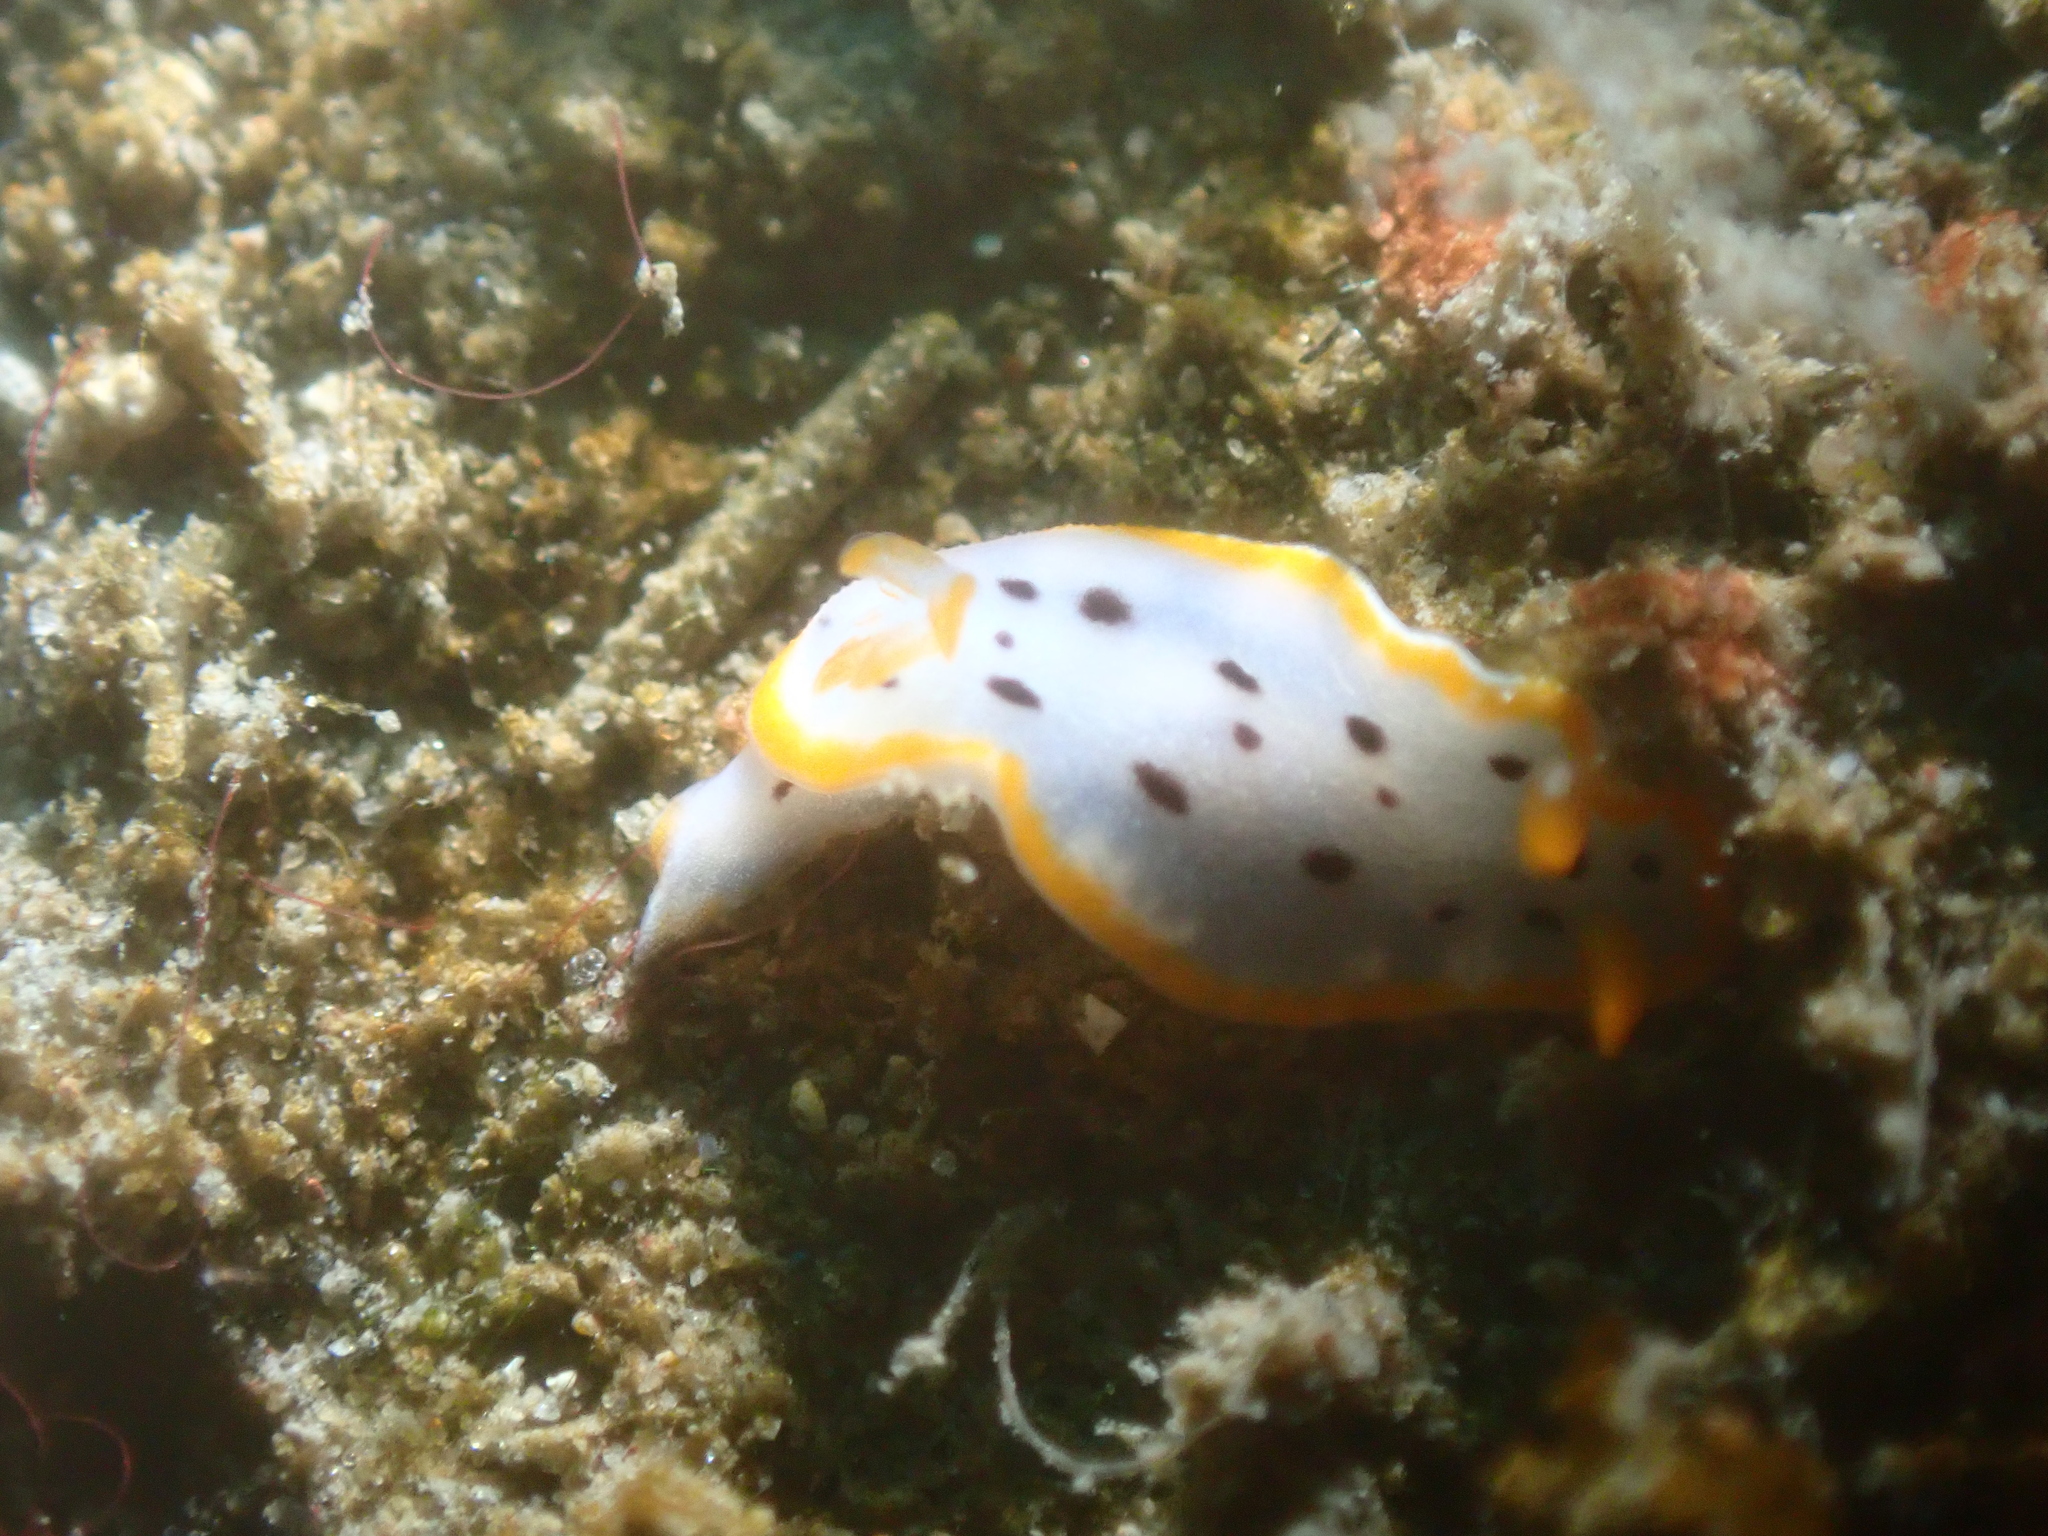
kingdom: Animalia
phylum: Mollusca
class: Gastropoda
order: Nudibranchia
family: Chromodorididae
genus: Chromodoris
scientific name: Chromodoris orientalis
